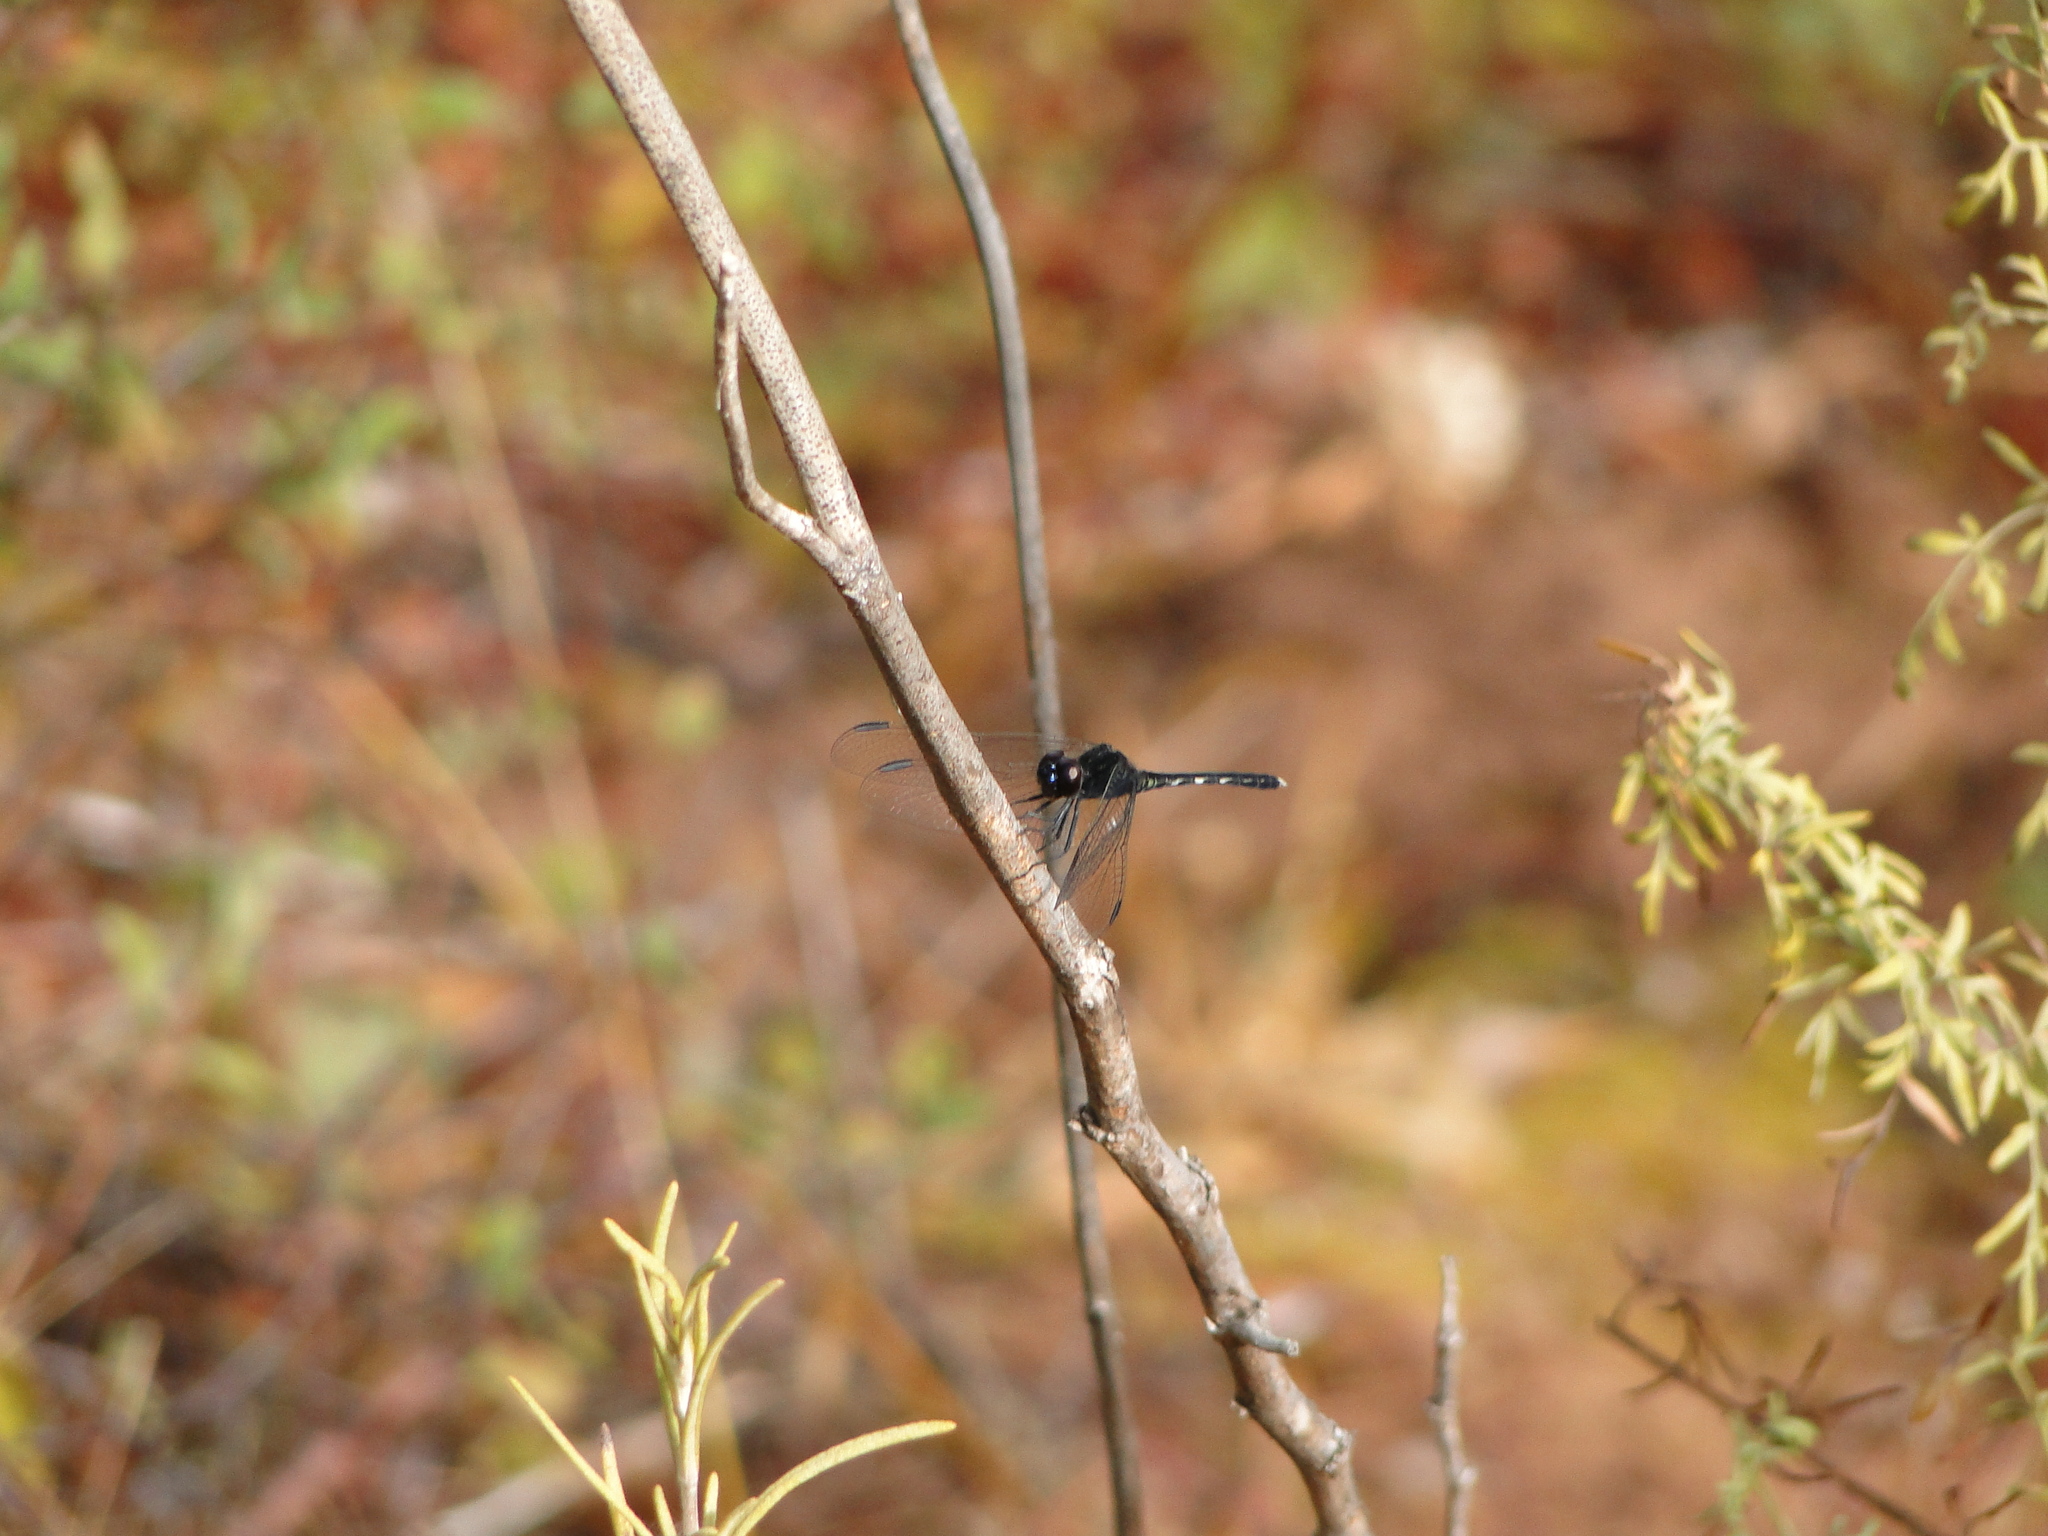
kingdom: Animalia
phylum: Arthropoda
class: Insecta
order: Odonata
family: Libellulidae
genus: Diplacodes
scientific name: Diplacodes lefebvrii
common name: Black percher
